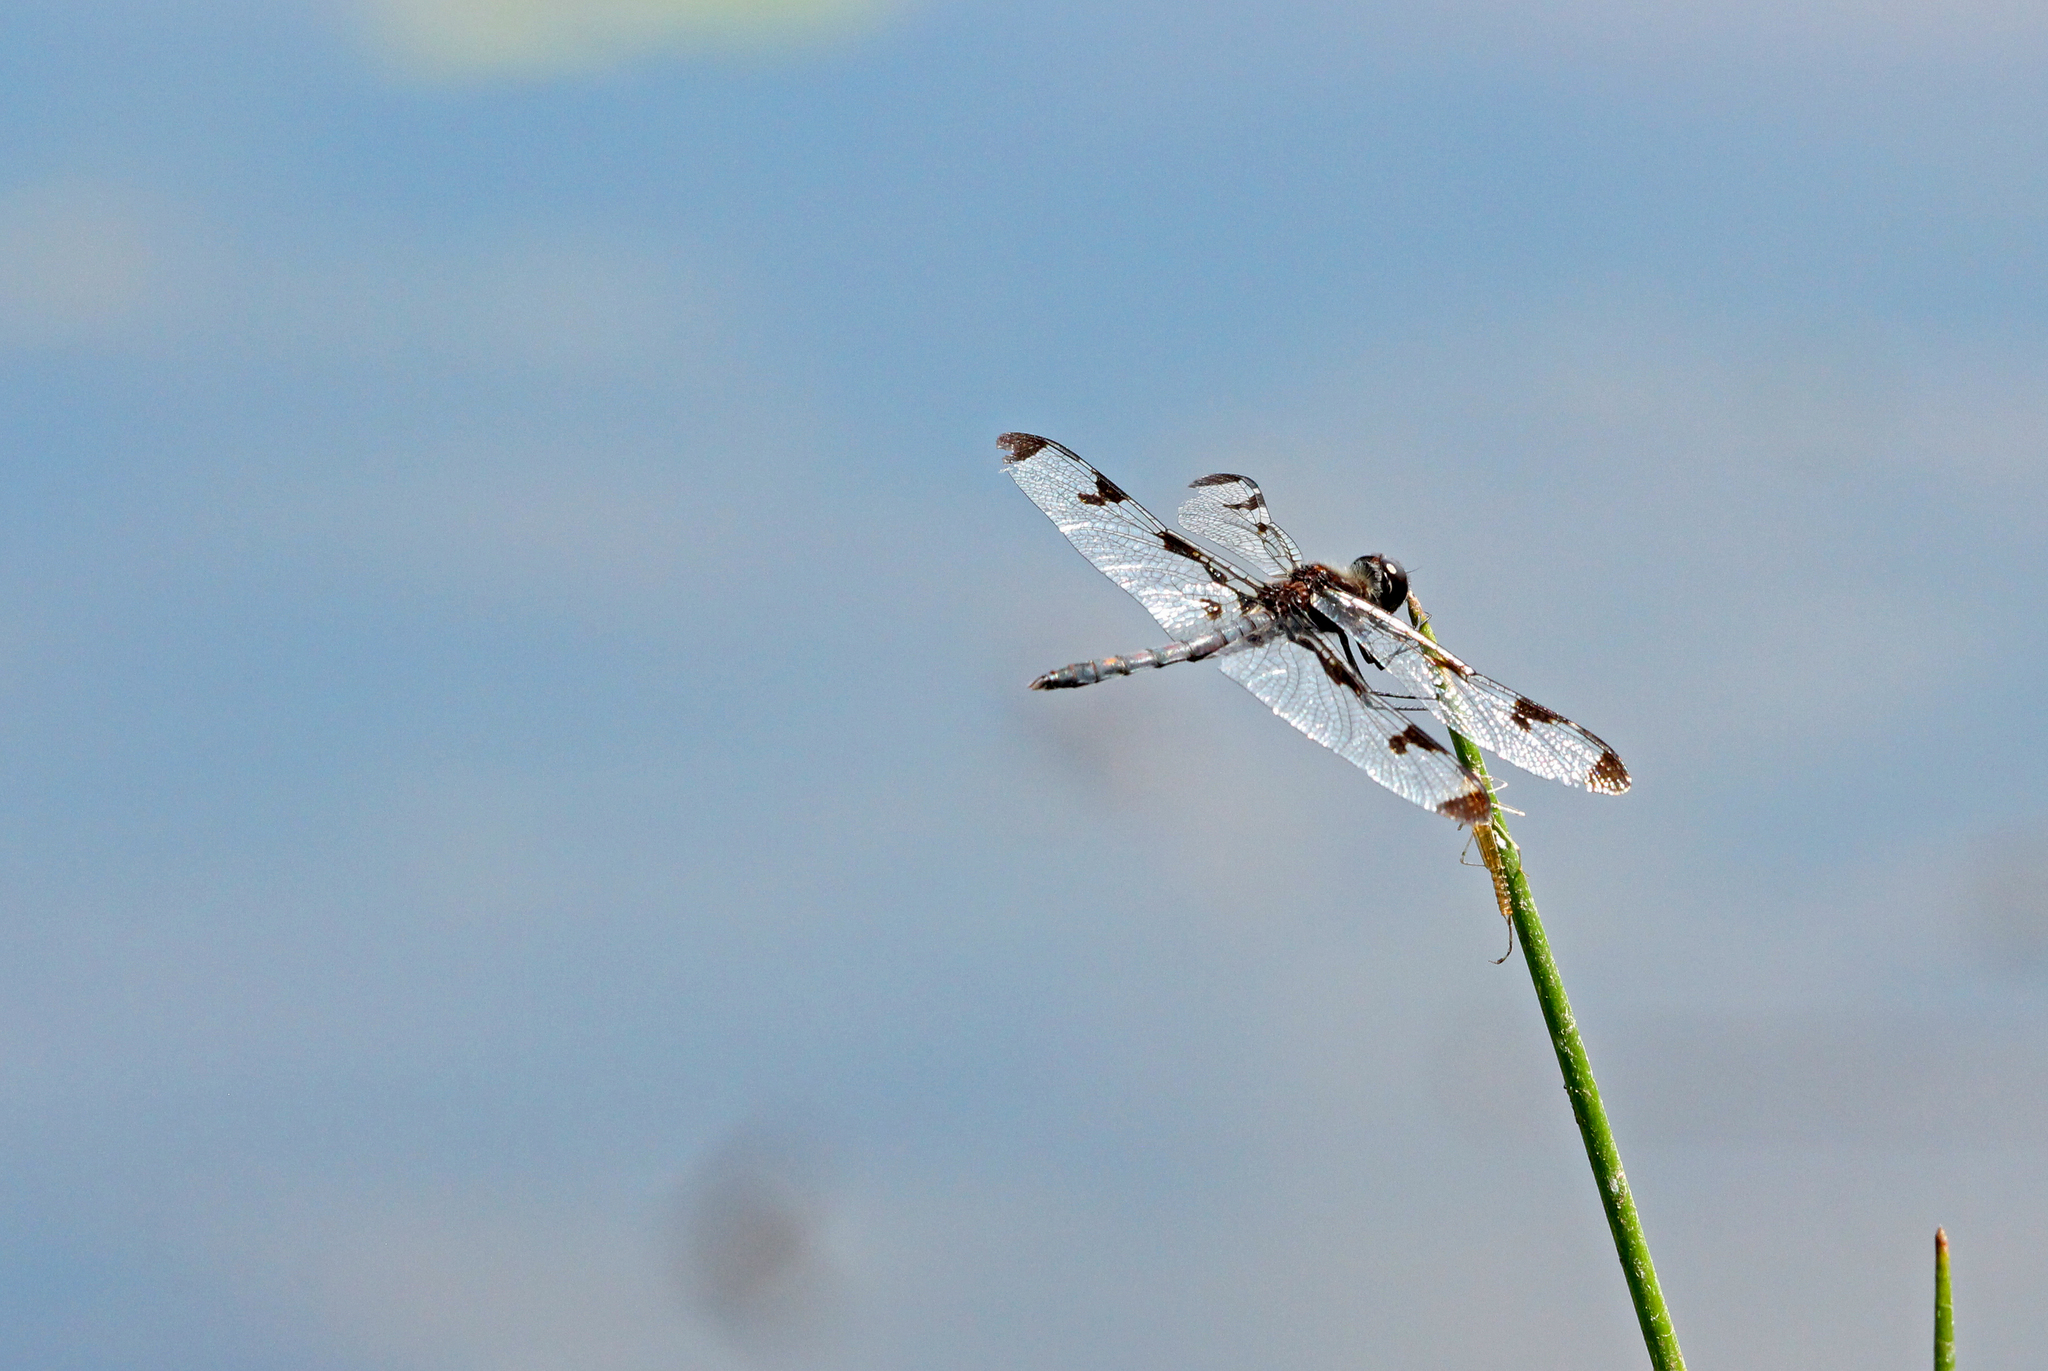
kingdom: Animalia
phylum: Arthropoda
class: Insecta
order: Odonata
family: Libellulidae
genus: Celithemis
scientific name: Celithemis fasciata
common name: Banded pennant
